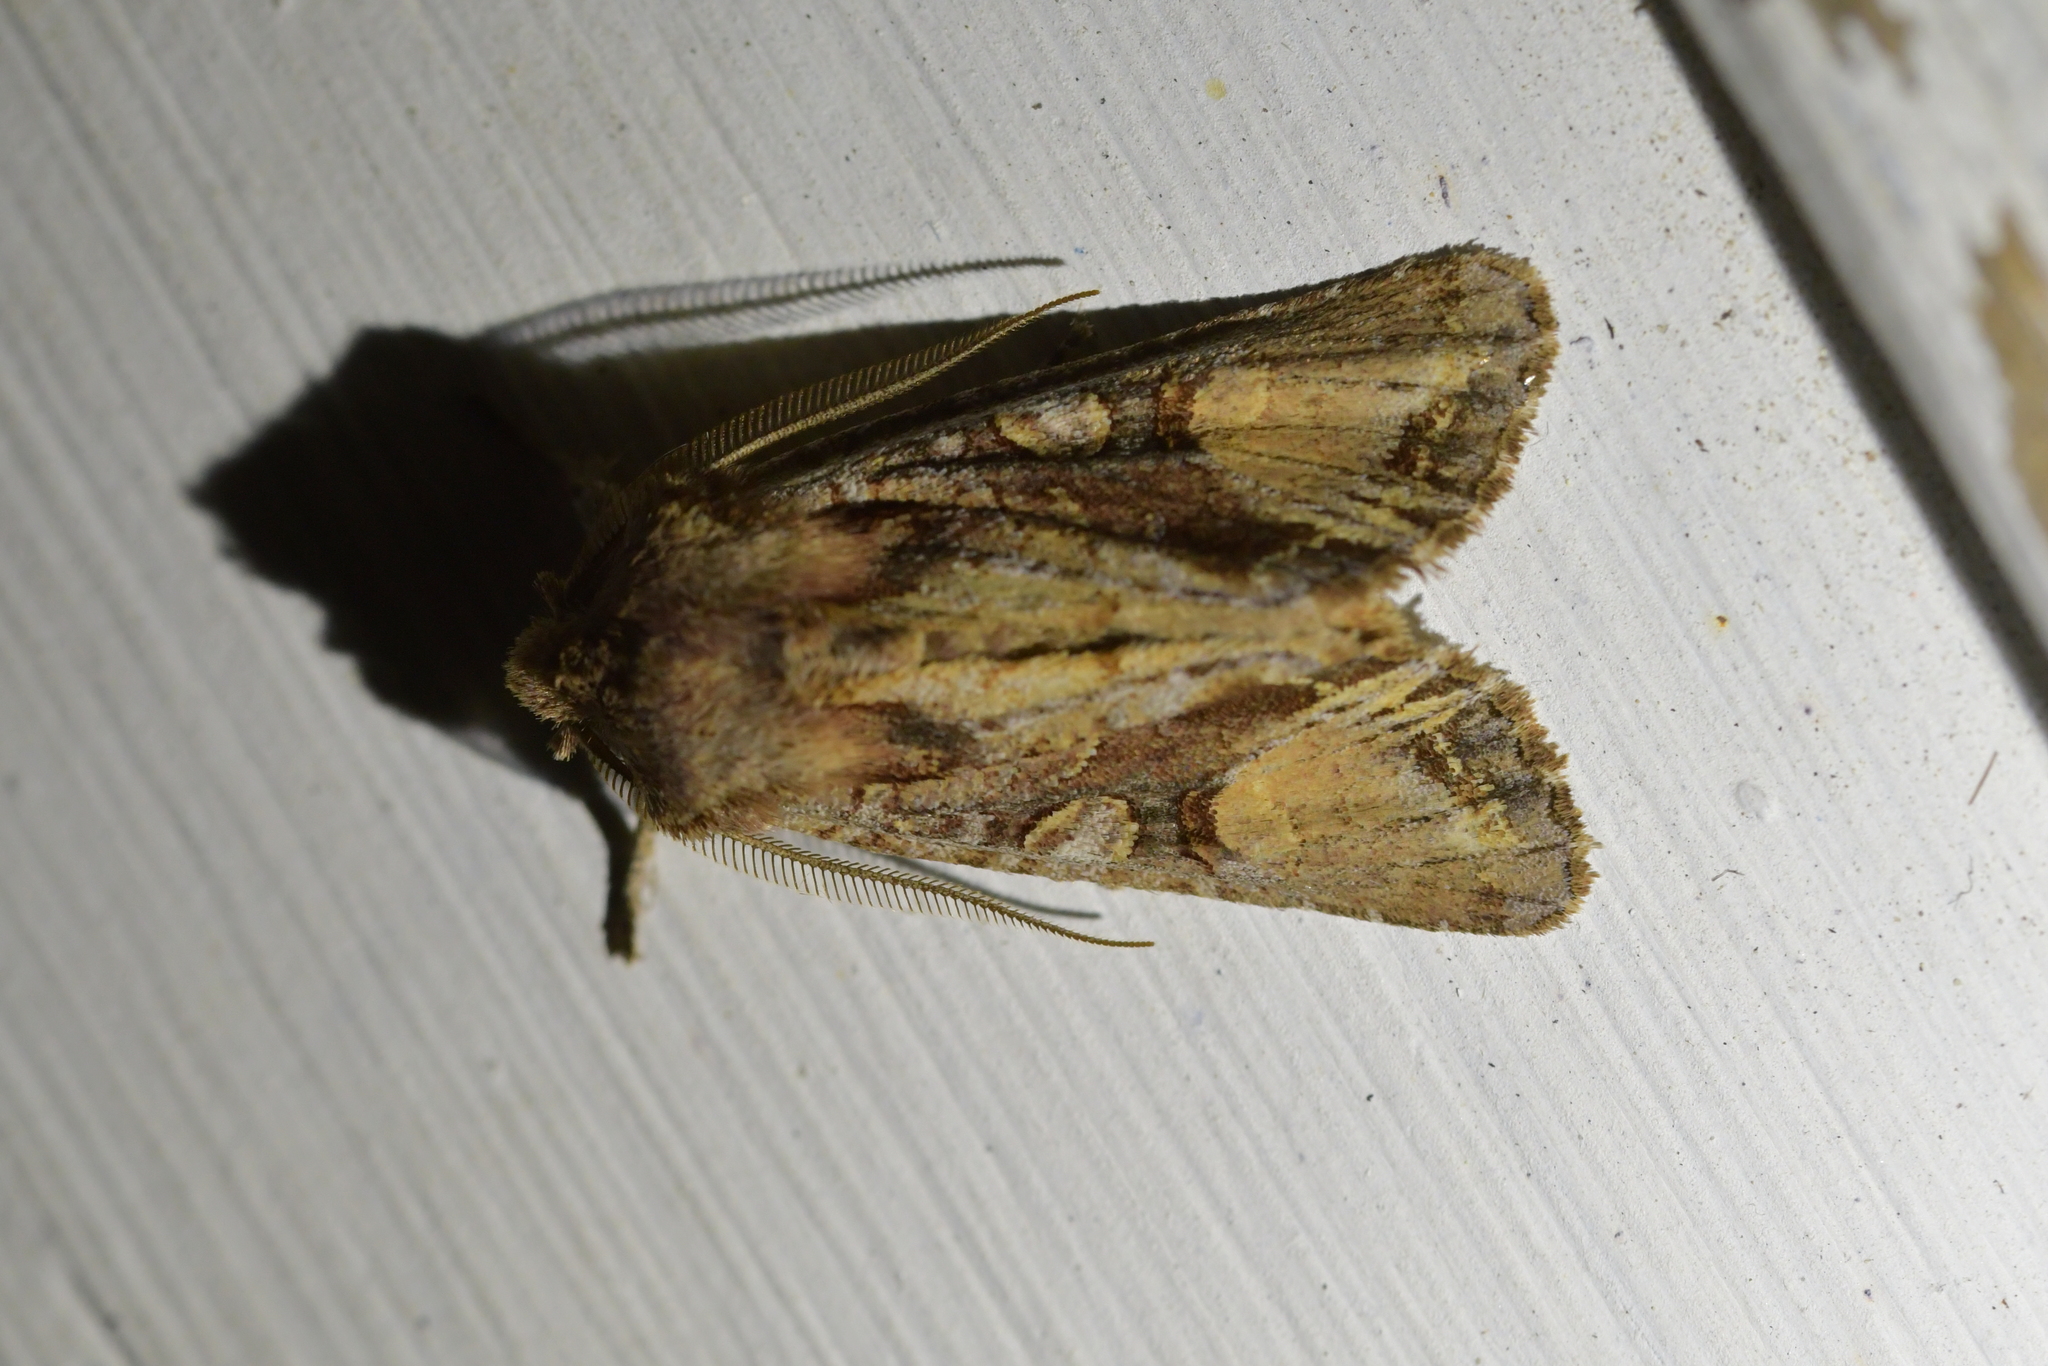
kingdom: Animalia
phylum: Arthropoda
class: Insecta
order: Lepidoptera
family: Noctuidae
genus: Ichneutica
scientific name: Ichneutica
